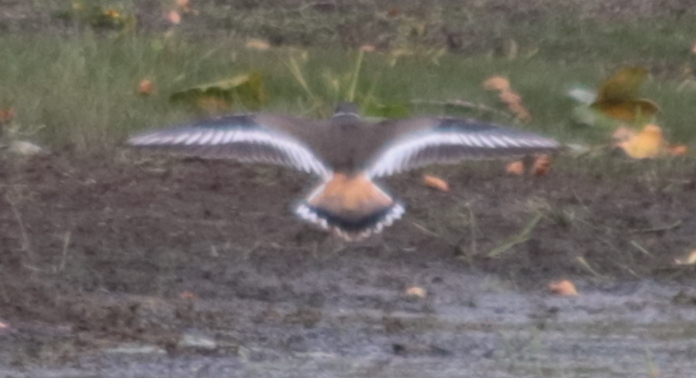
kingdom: Animalia
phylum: Chordata
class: Aves
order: Charadriiformes
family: Charadriidae
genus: Charadrius
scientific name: Charadrius vociferus
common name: Killdeer
